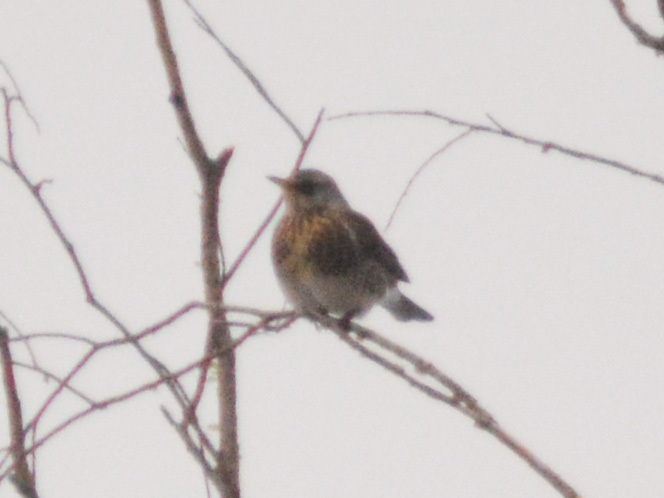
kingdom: Animalia
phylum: Chordata
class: Aves
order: Passeriformes
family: Turdidae
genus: Turdus
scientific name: Turdus pilaris
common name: Fieldfare
